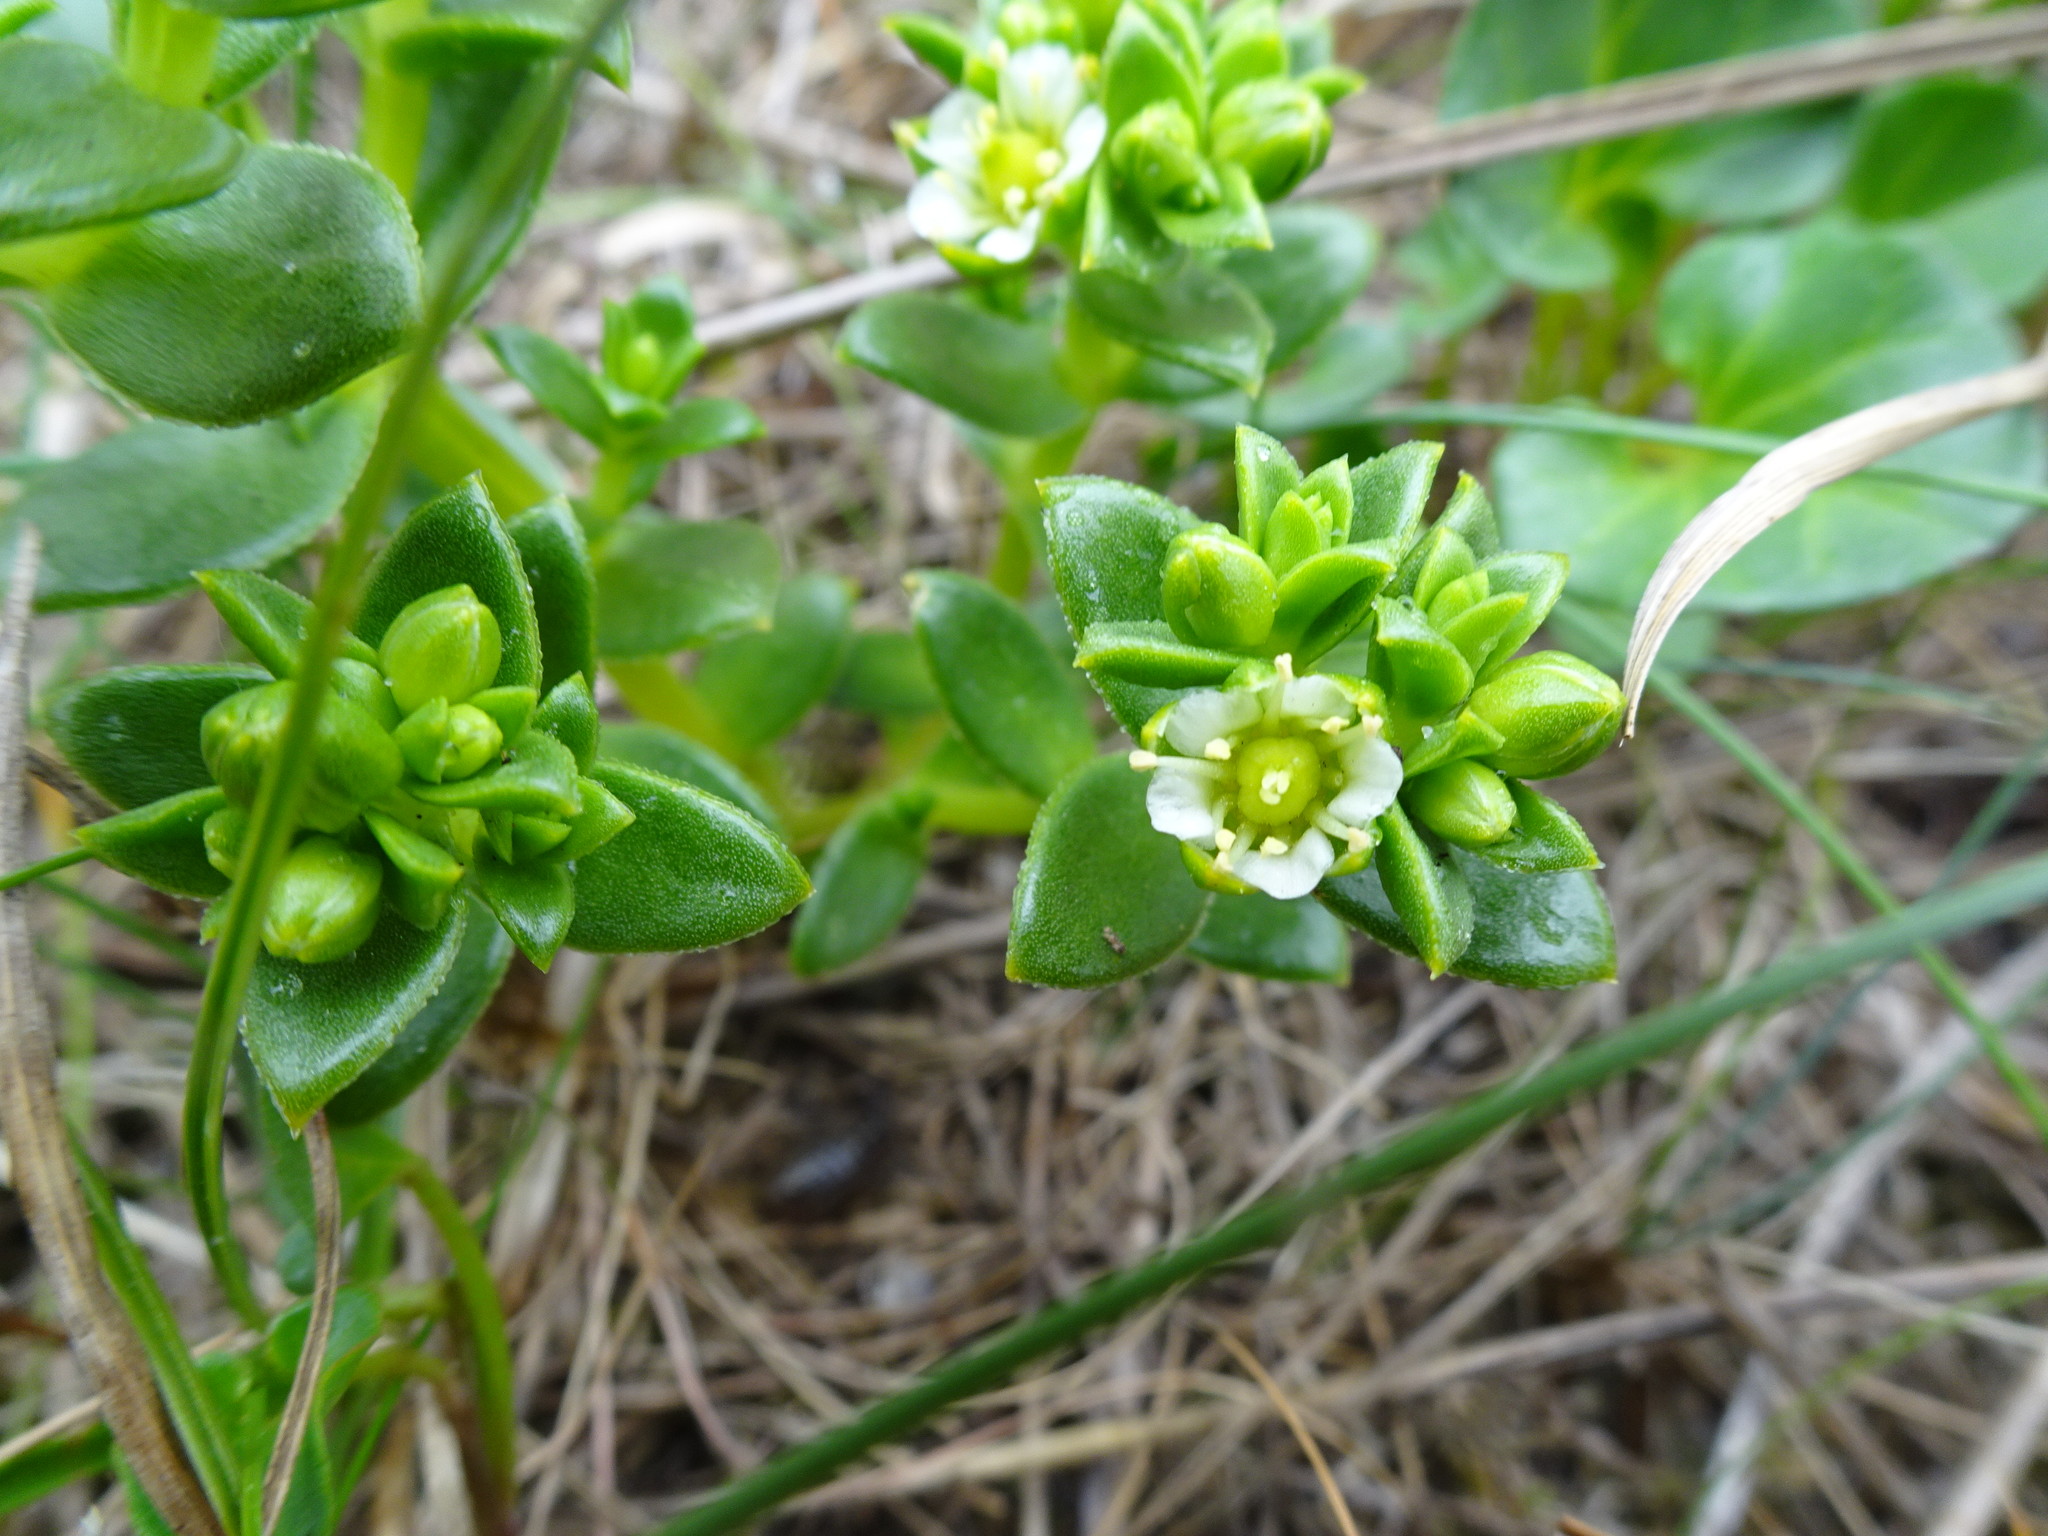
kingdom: Plantae
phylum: Tracheophyta
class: Magnoliopsida
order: Caryophyllales
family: Caryophyllaceae
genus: Honckenya
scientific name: Honckenya peploides
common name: Sea sandwort
